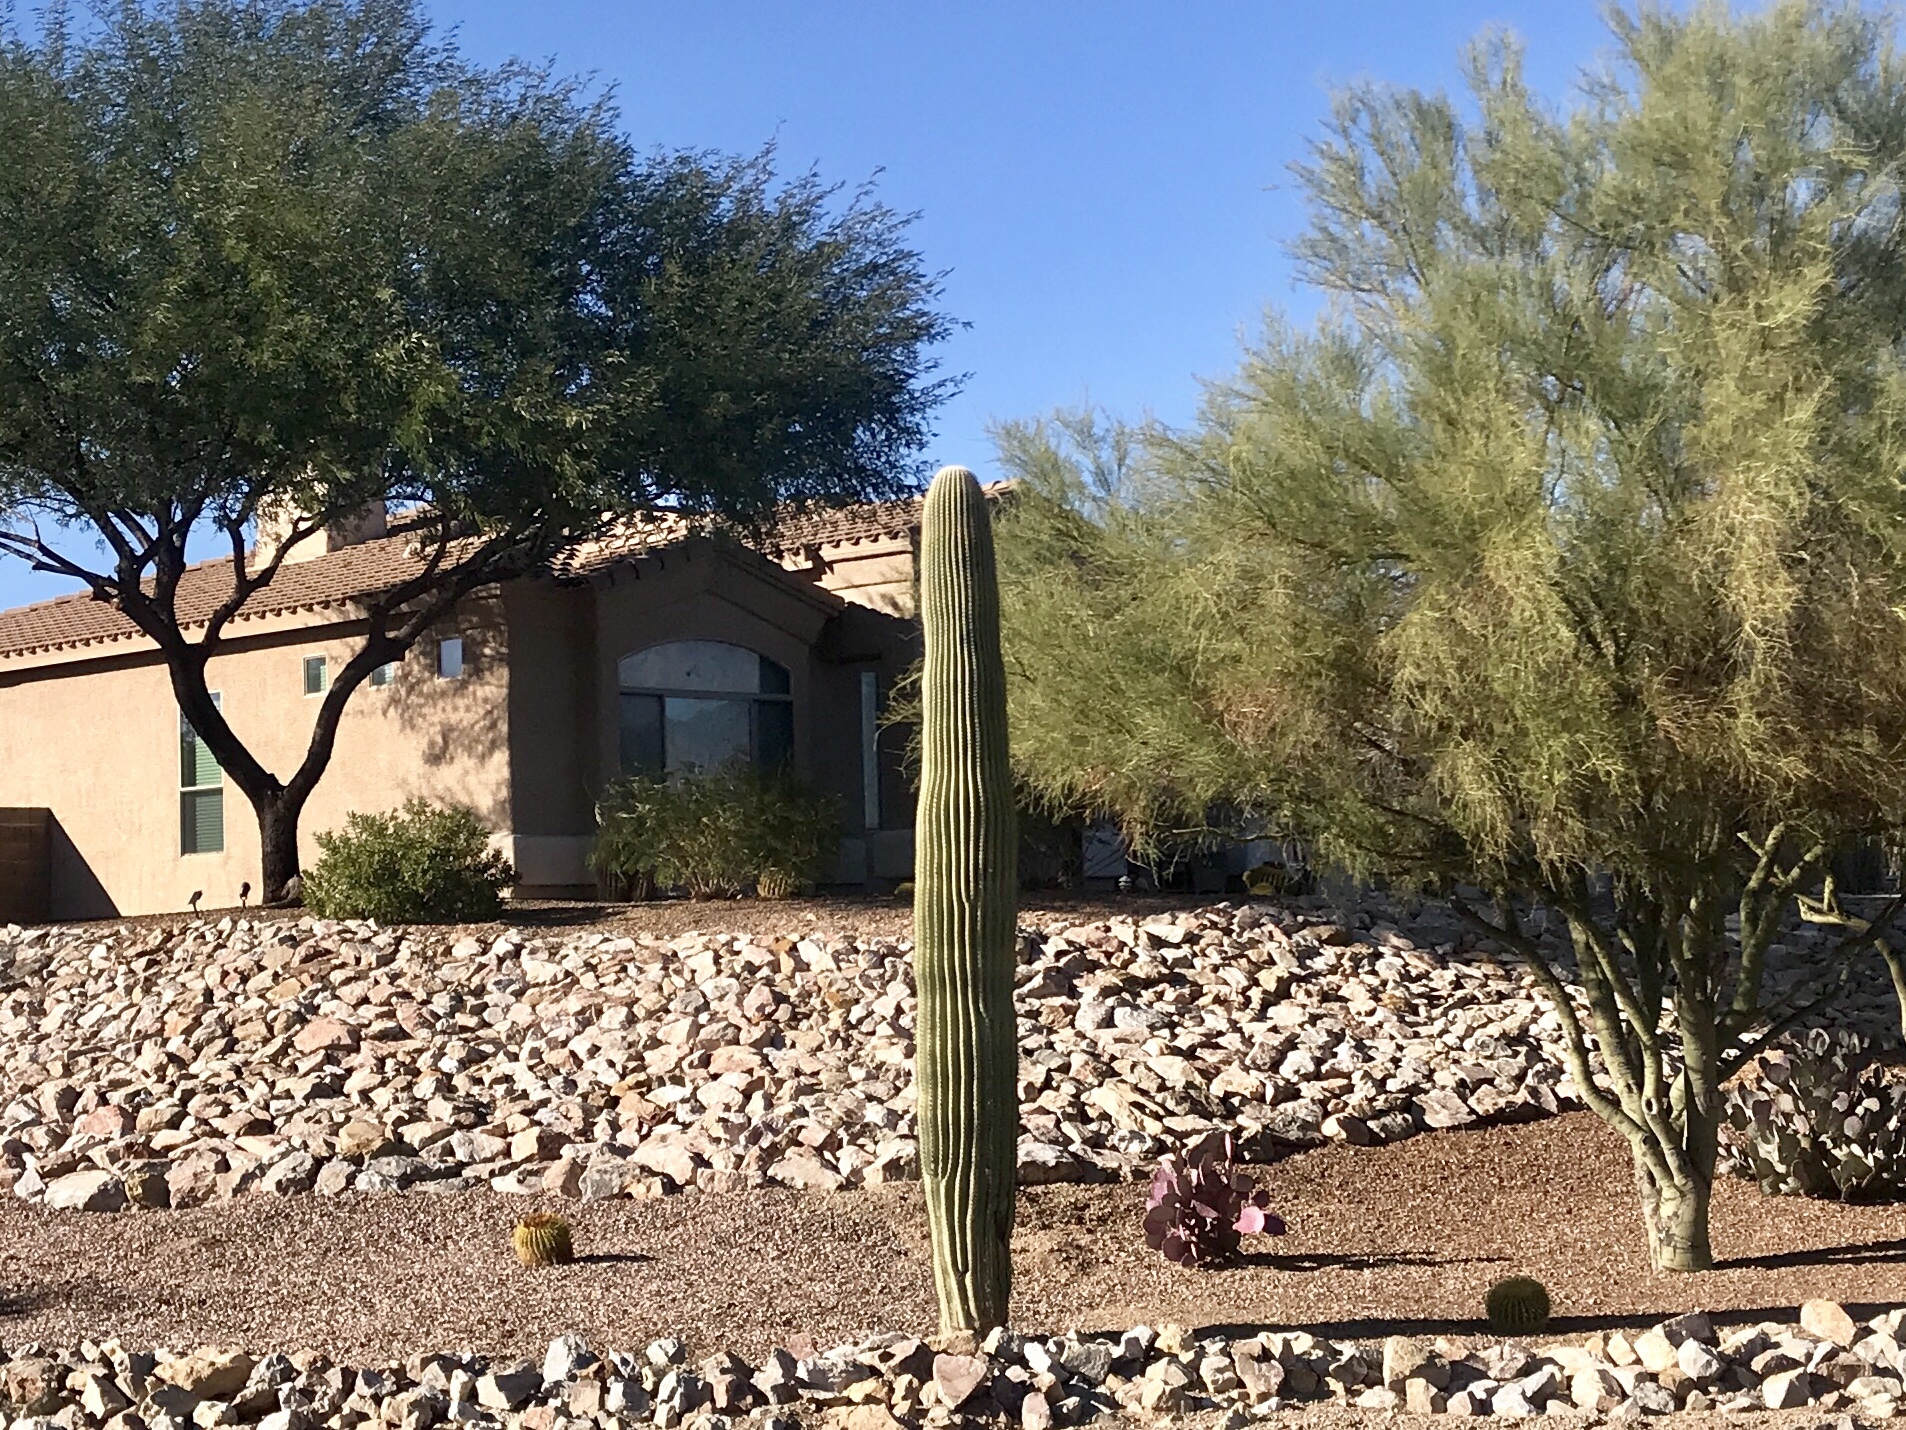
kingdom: Plantae
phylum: Tracheophyta
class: Magnoliopsida
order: Caryophyllales
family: Cactaceae
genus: Carnegiea
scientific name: Carnegiea gigantea
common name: Saguaro
